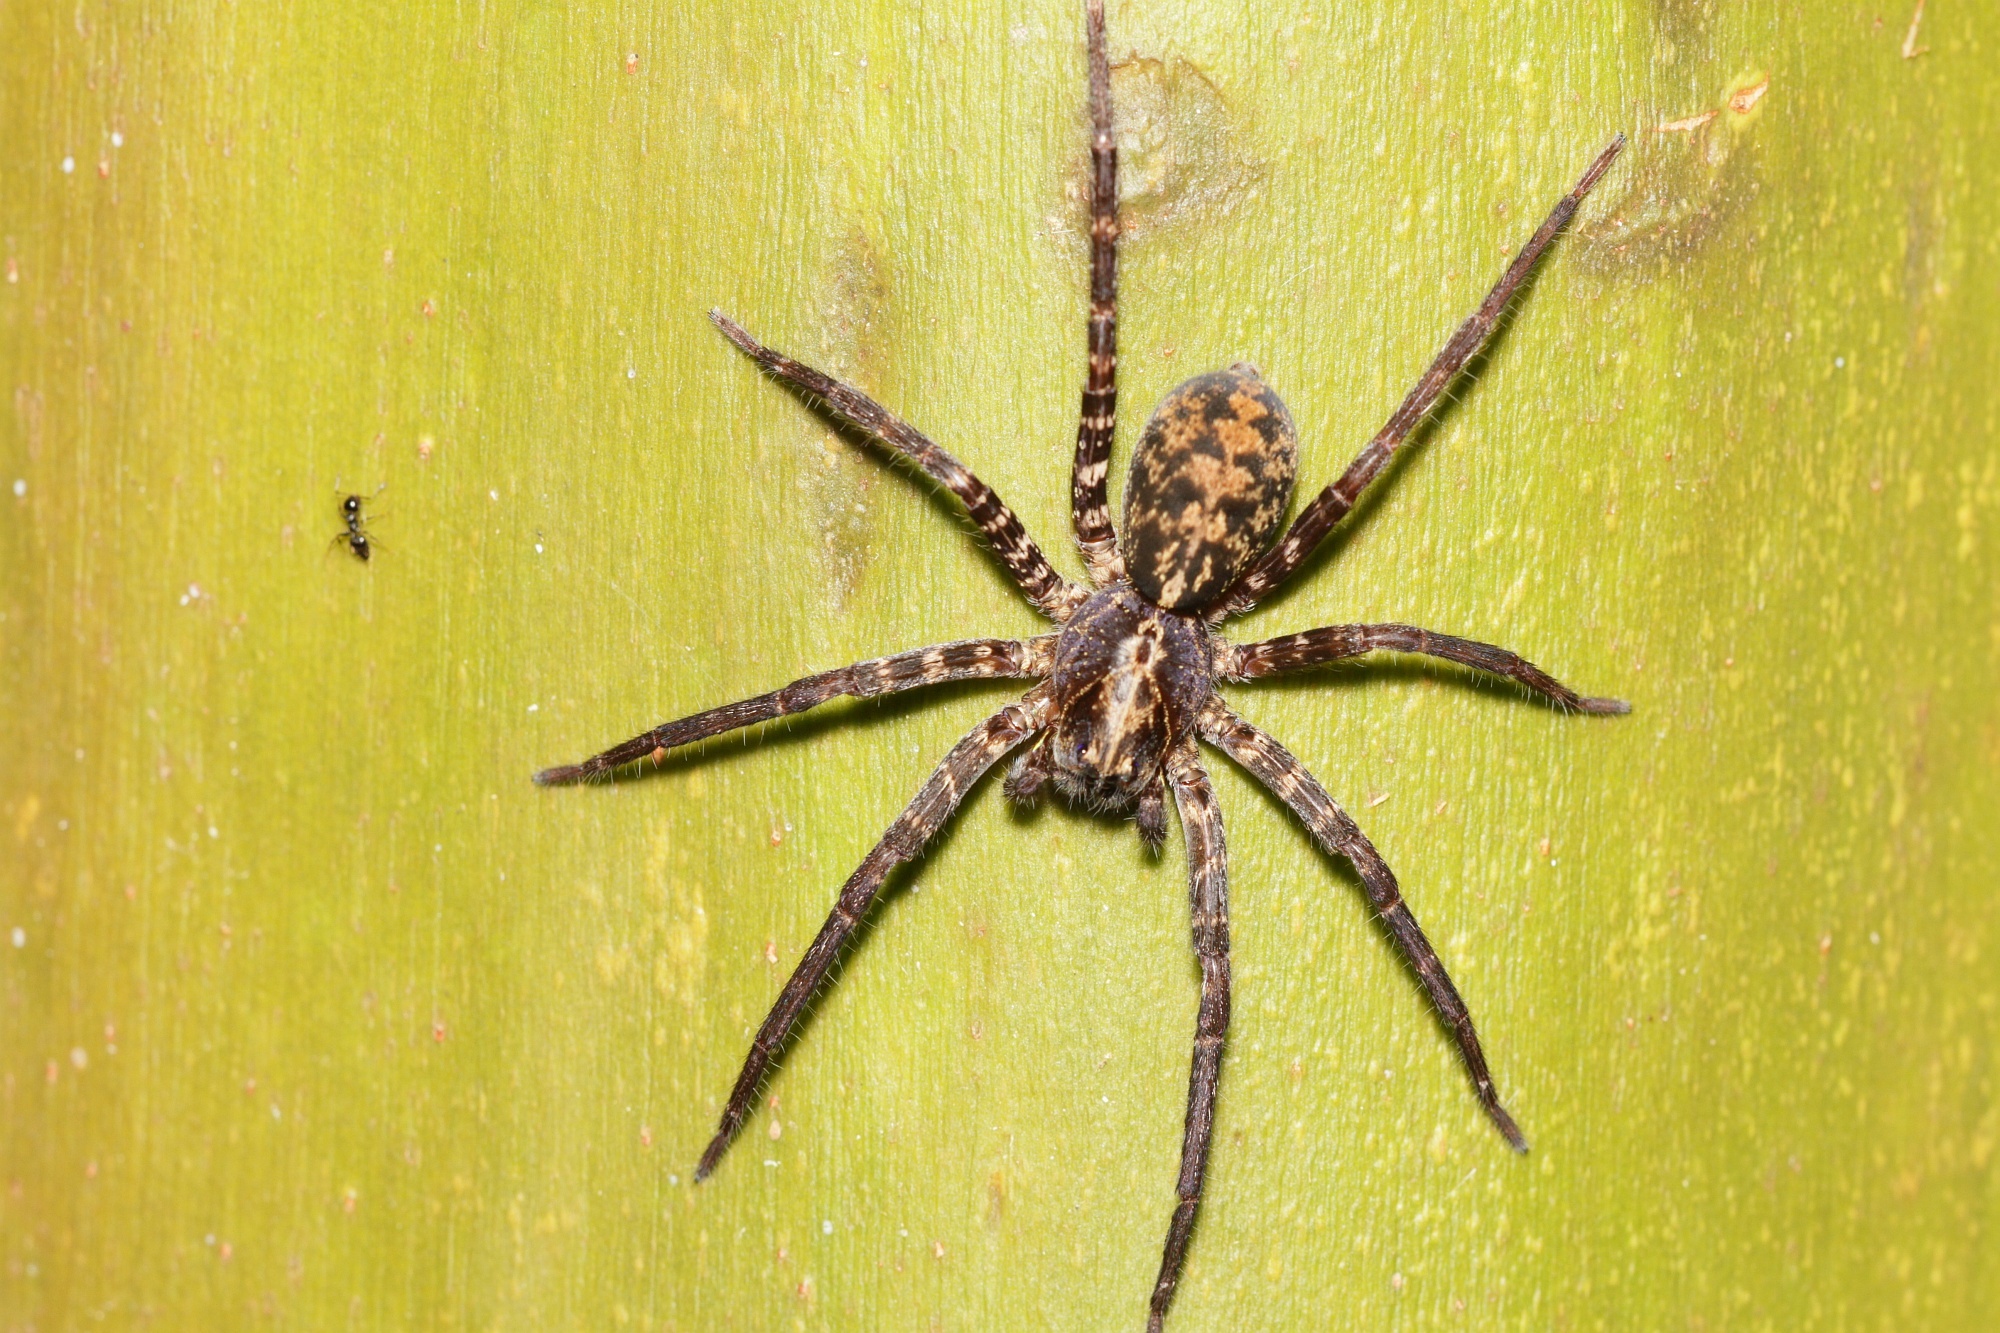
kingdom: Animalia
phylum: Arthropoda
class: Arachnida
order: Araneae
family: Ctenidae
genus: Ctenus
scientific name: Ctenus inaja
